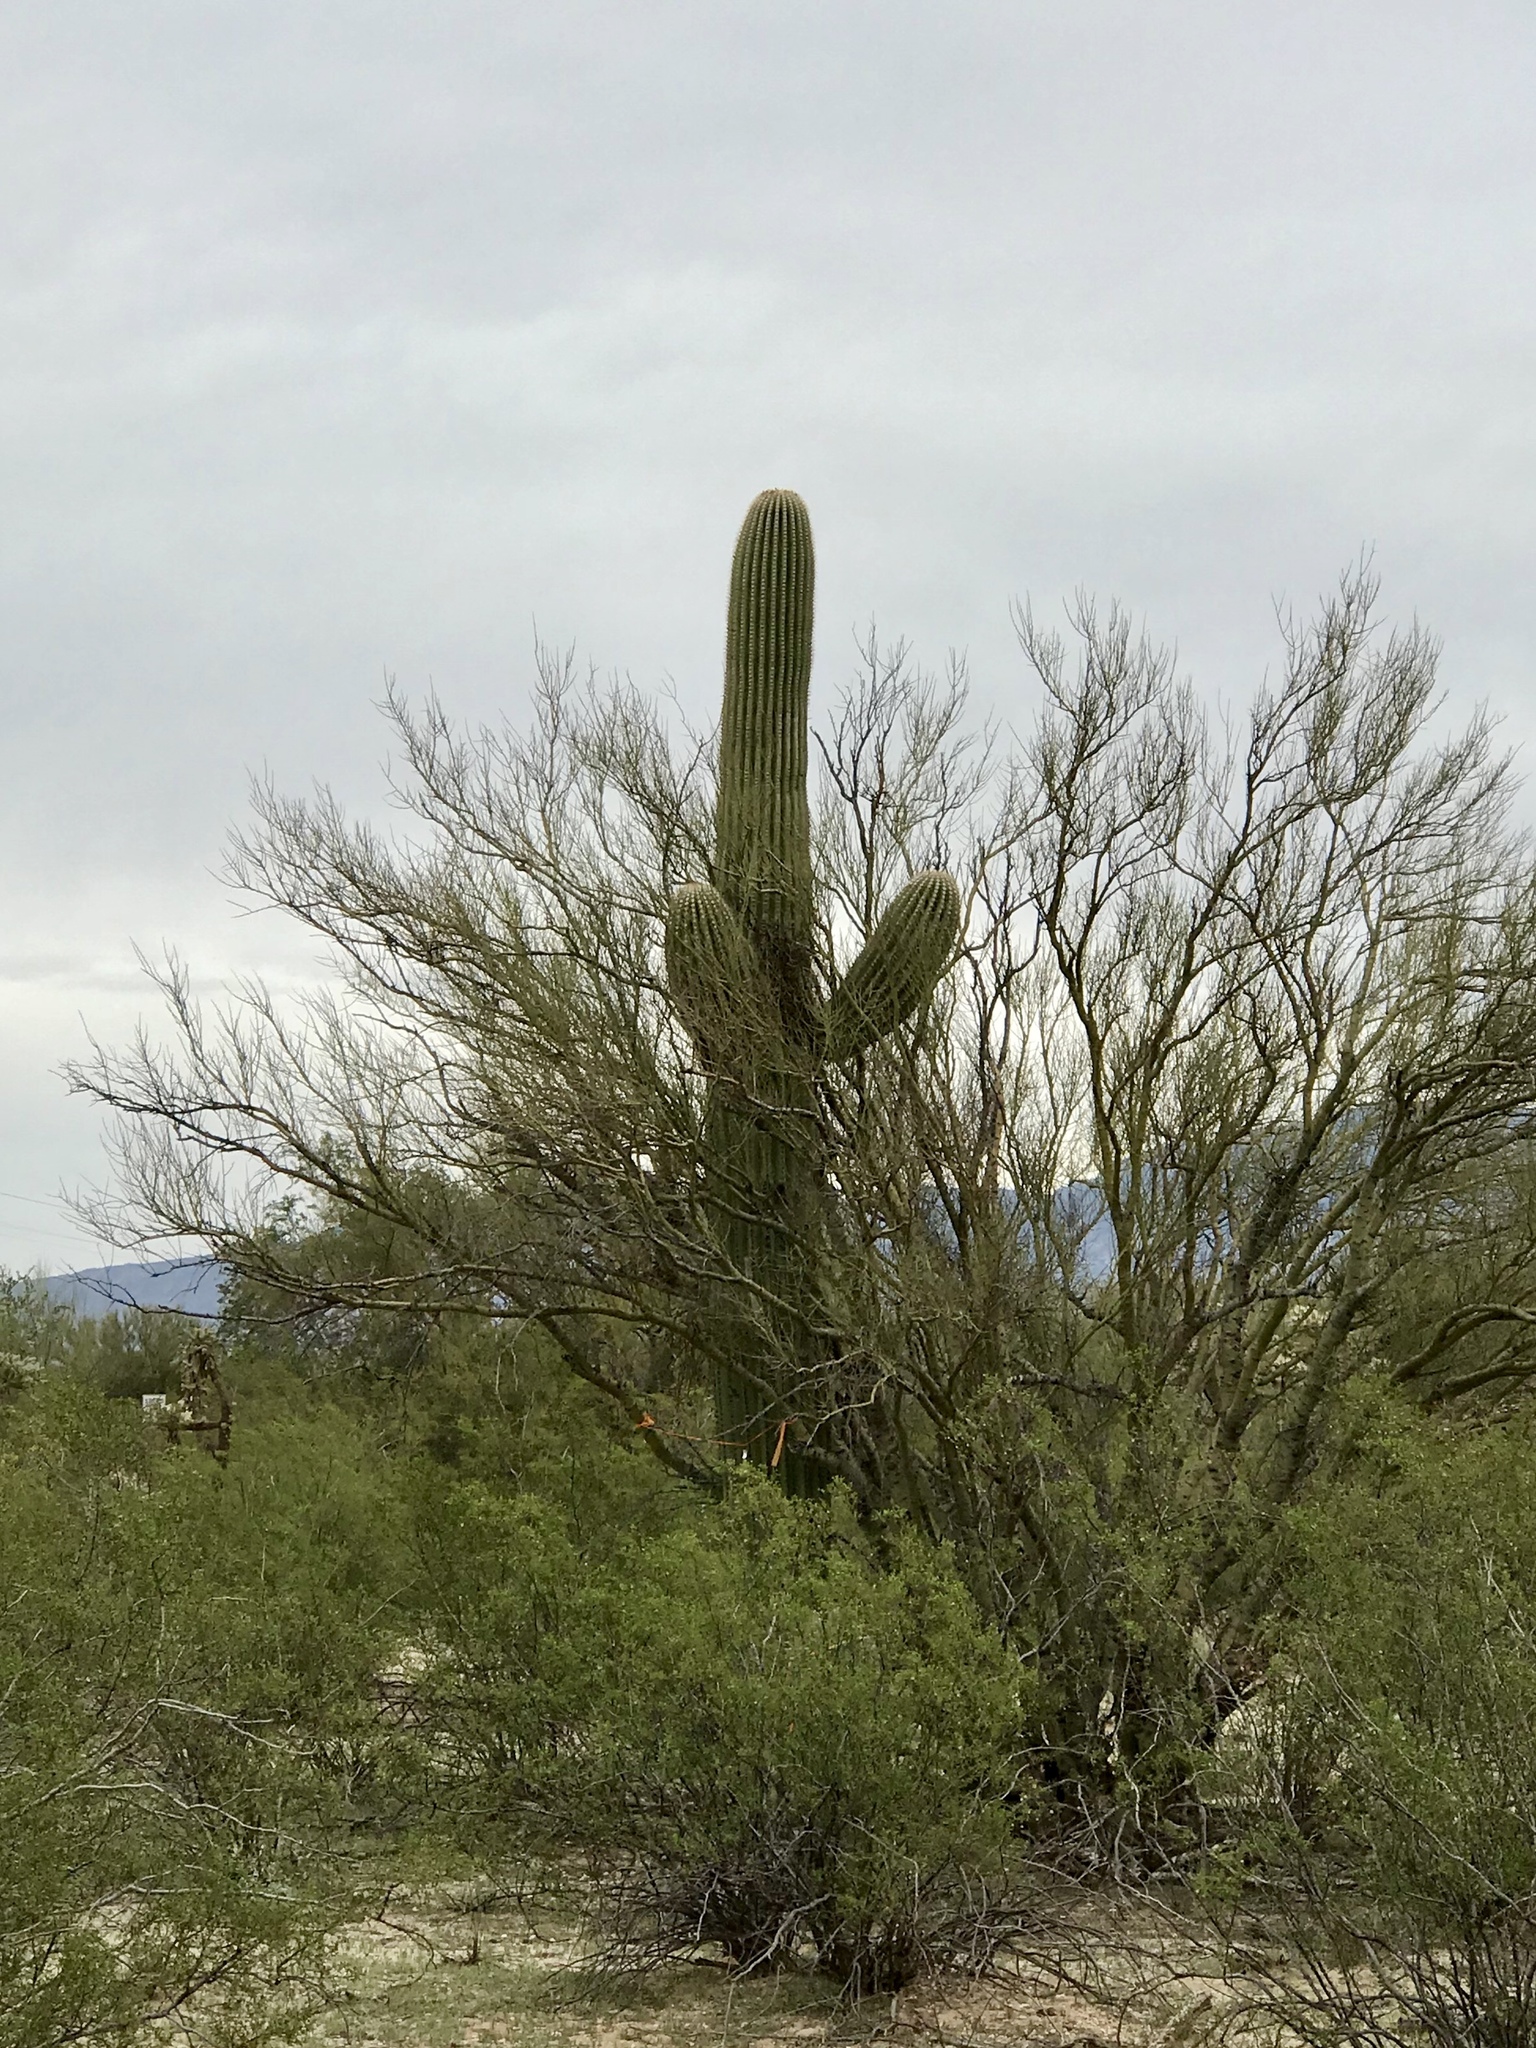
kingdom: Plantae
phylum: Tracheophyta
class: Magnoliopsida
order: Caryophyllales
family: Cactaceae
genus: Carnegiea
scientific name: Carnegiea gigantea
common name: Saguaro
